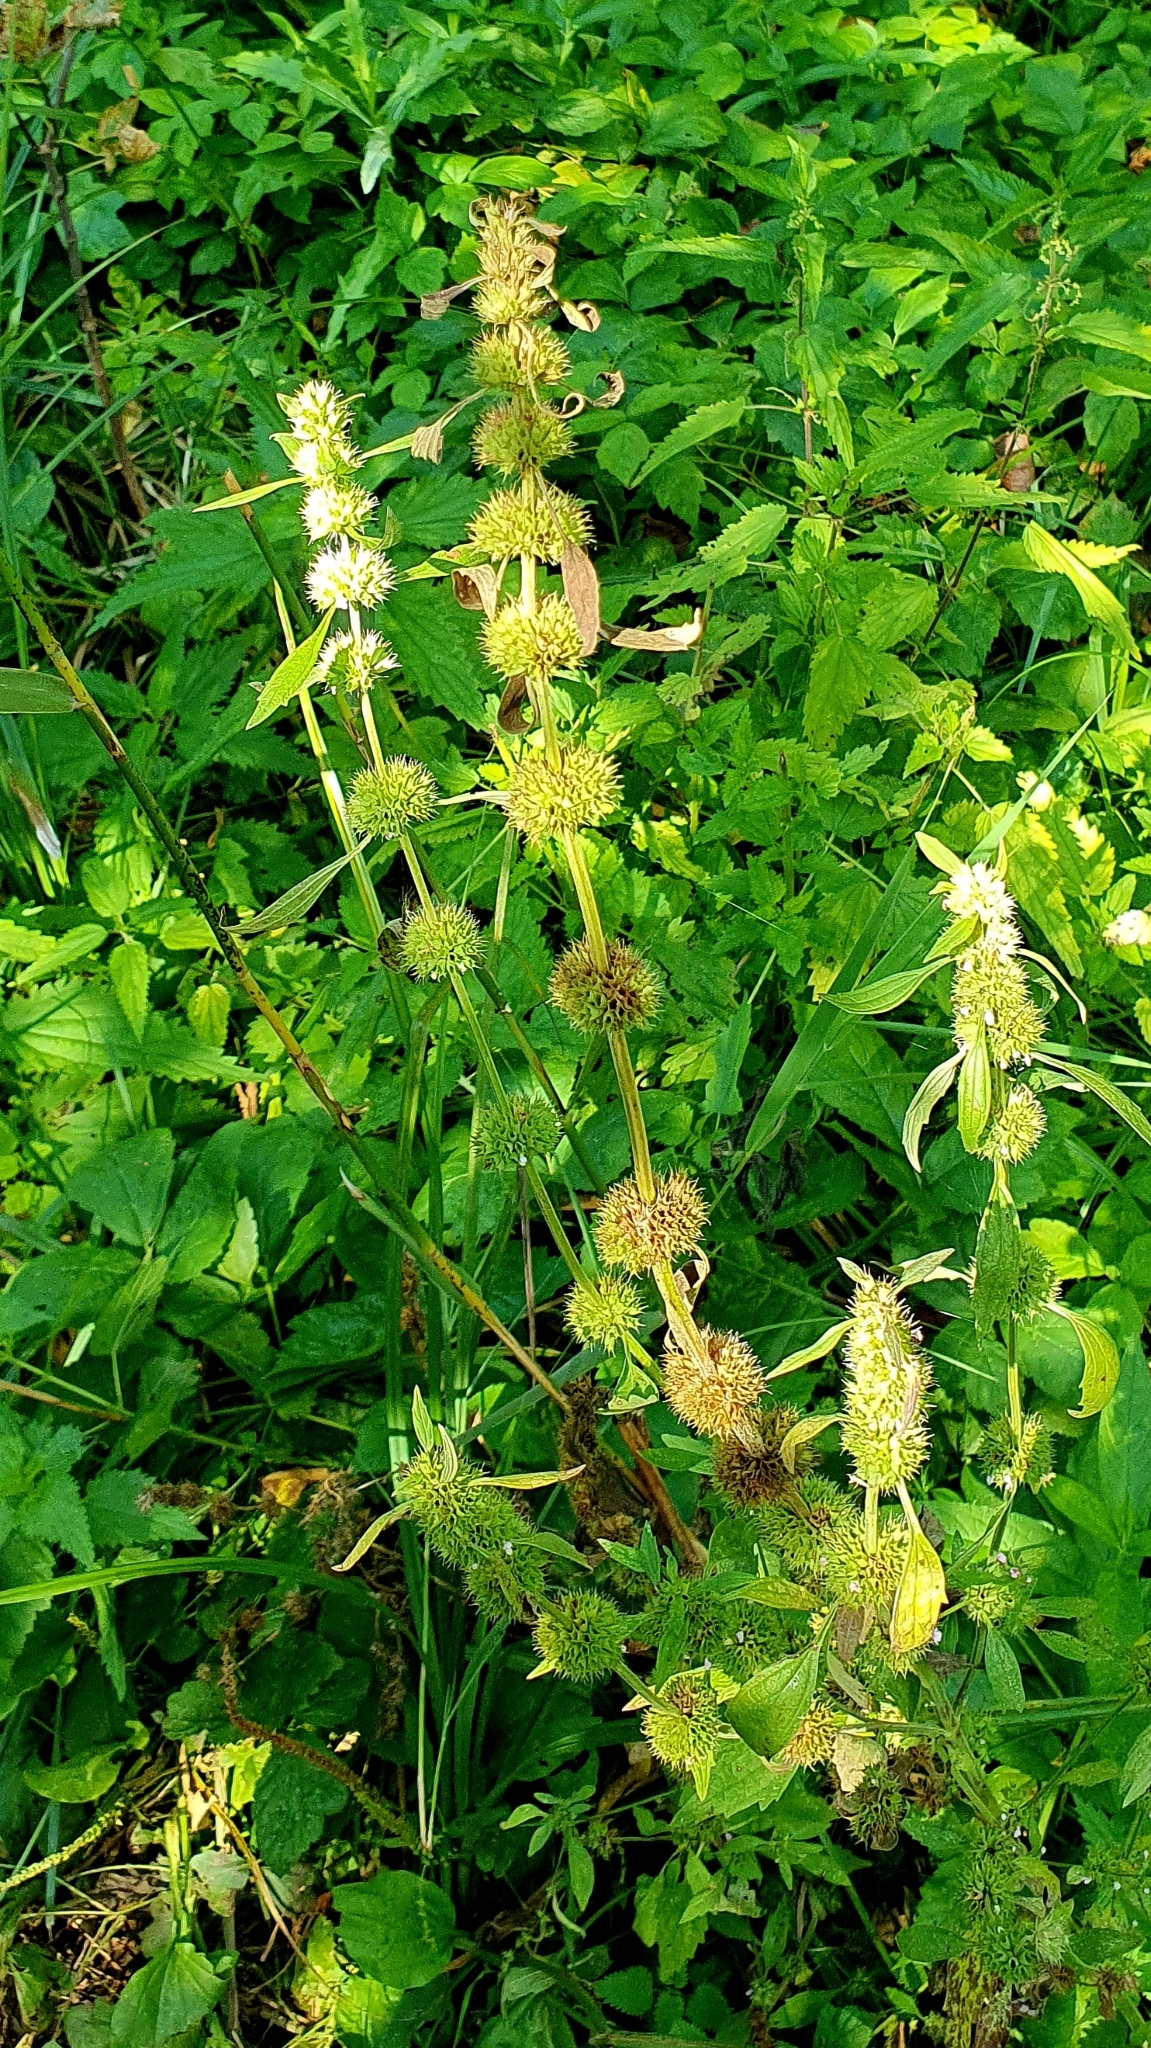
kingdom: Plantae
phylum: Tracheophyta
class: Magnoliopsida
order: Lamiales
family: Lamiaceae
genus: Chaiturus
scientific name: Chaiturus marrubiastrum
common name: Lion's tail
